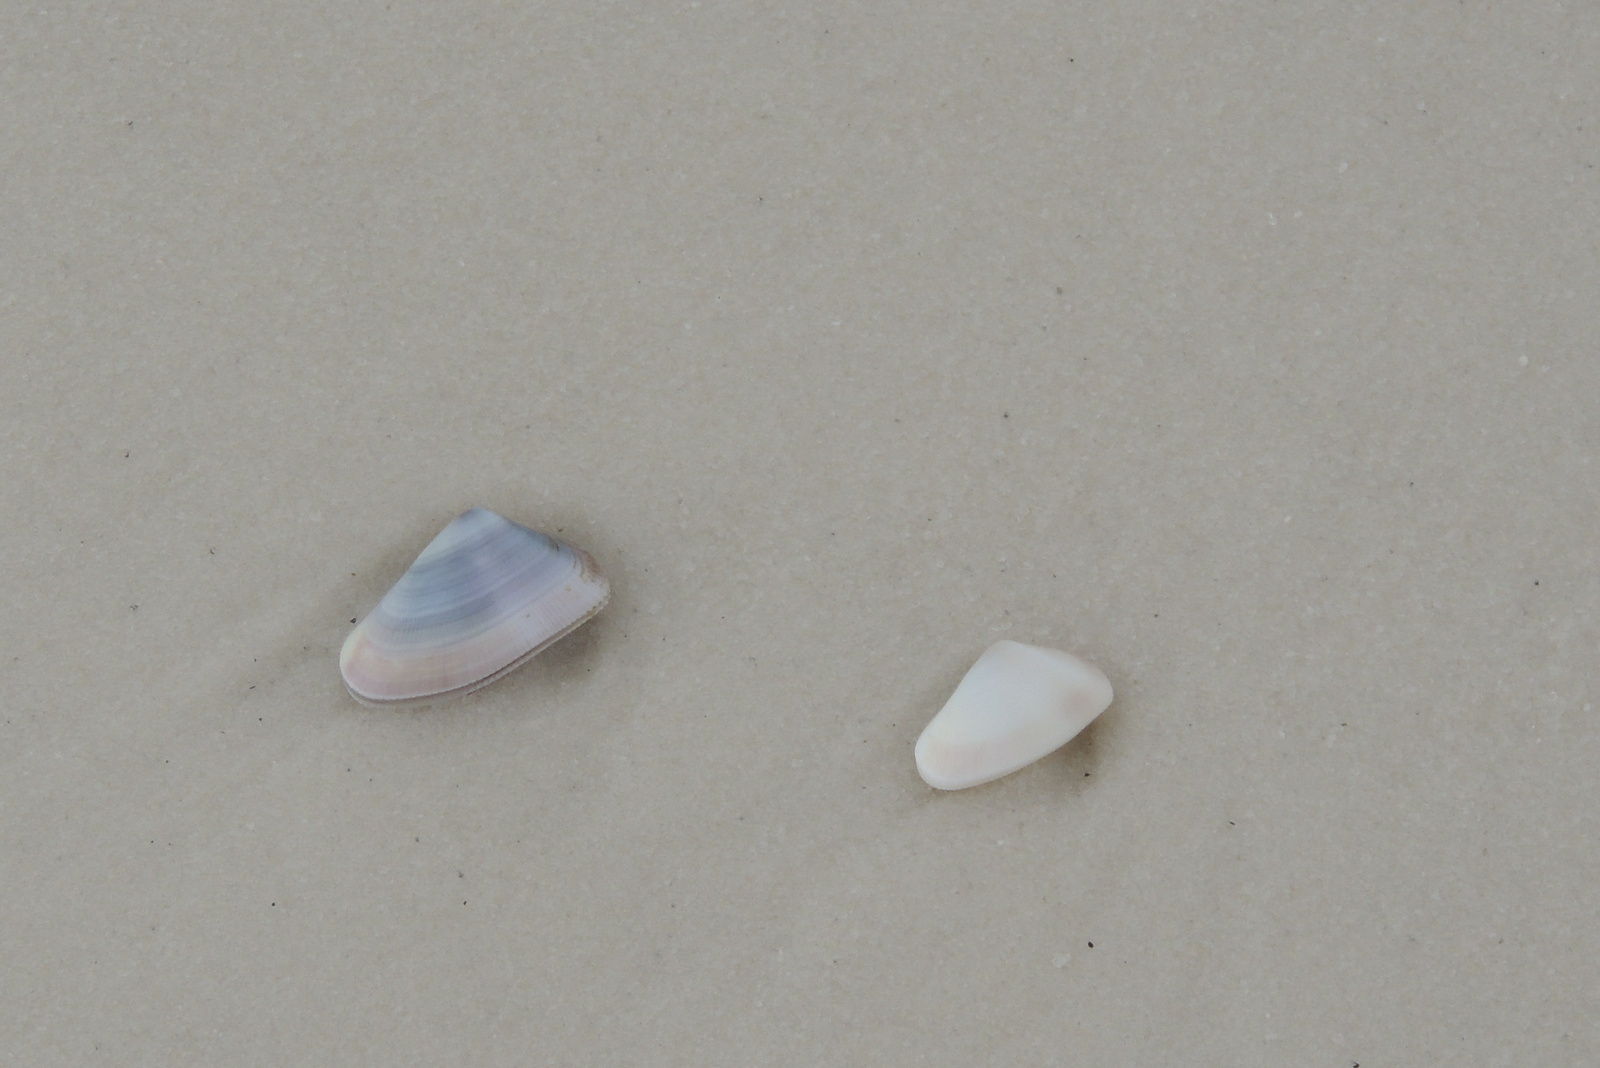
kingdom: Animalia
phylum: Mollusca
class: Bivalvia
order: Cardiida
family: Donacidae
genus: Donax
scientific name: Donax variabilis
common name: Butterfly shell
